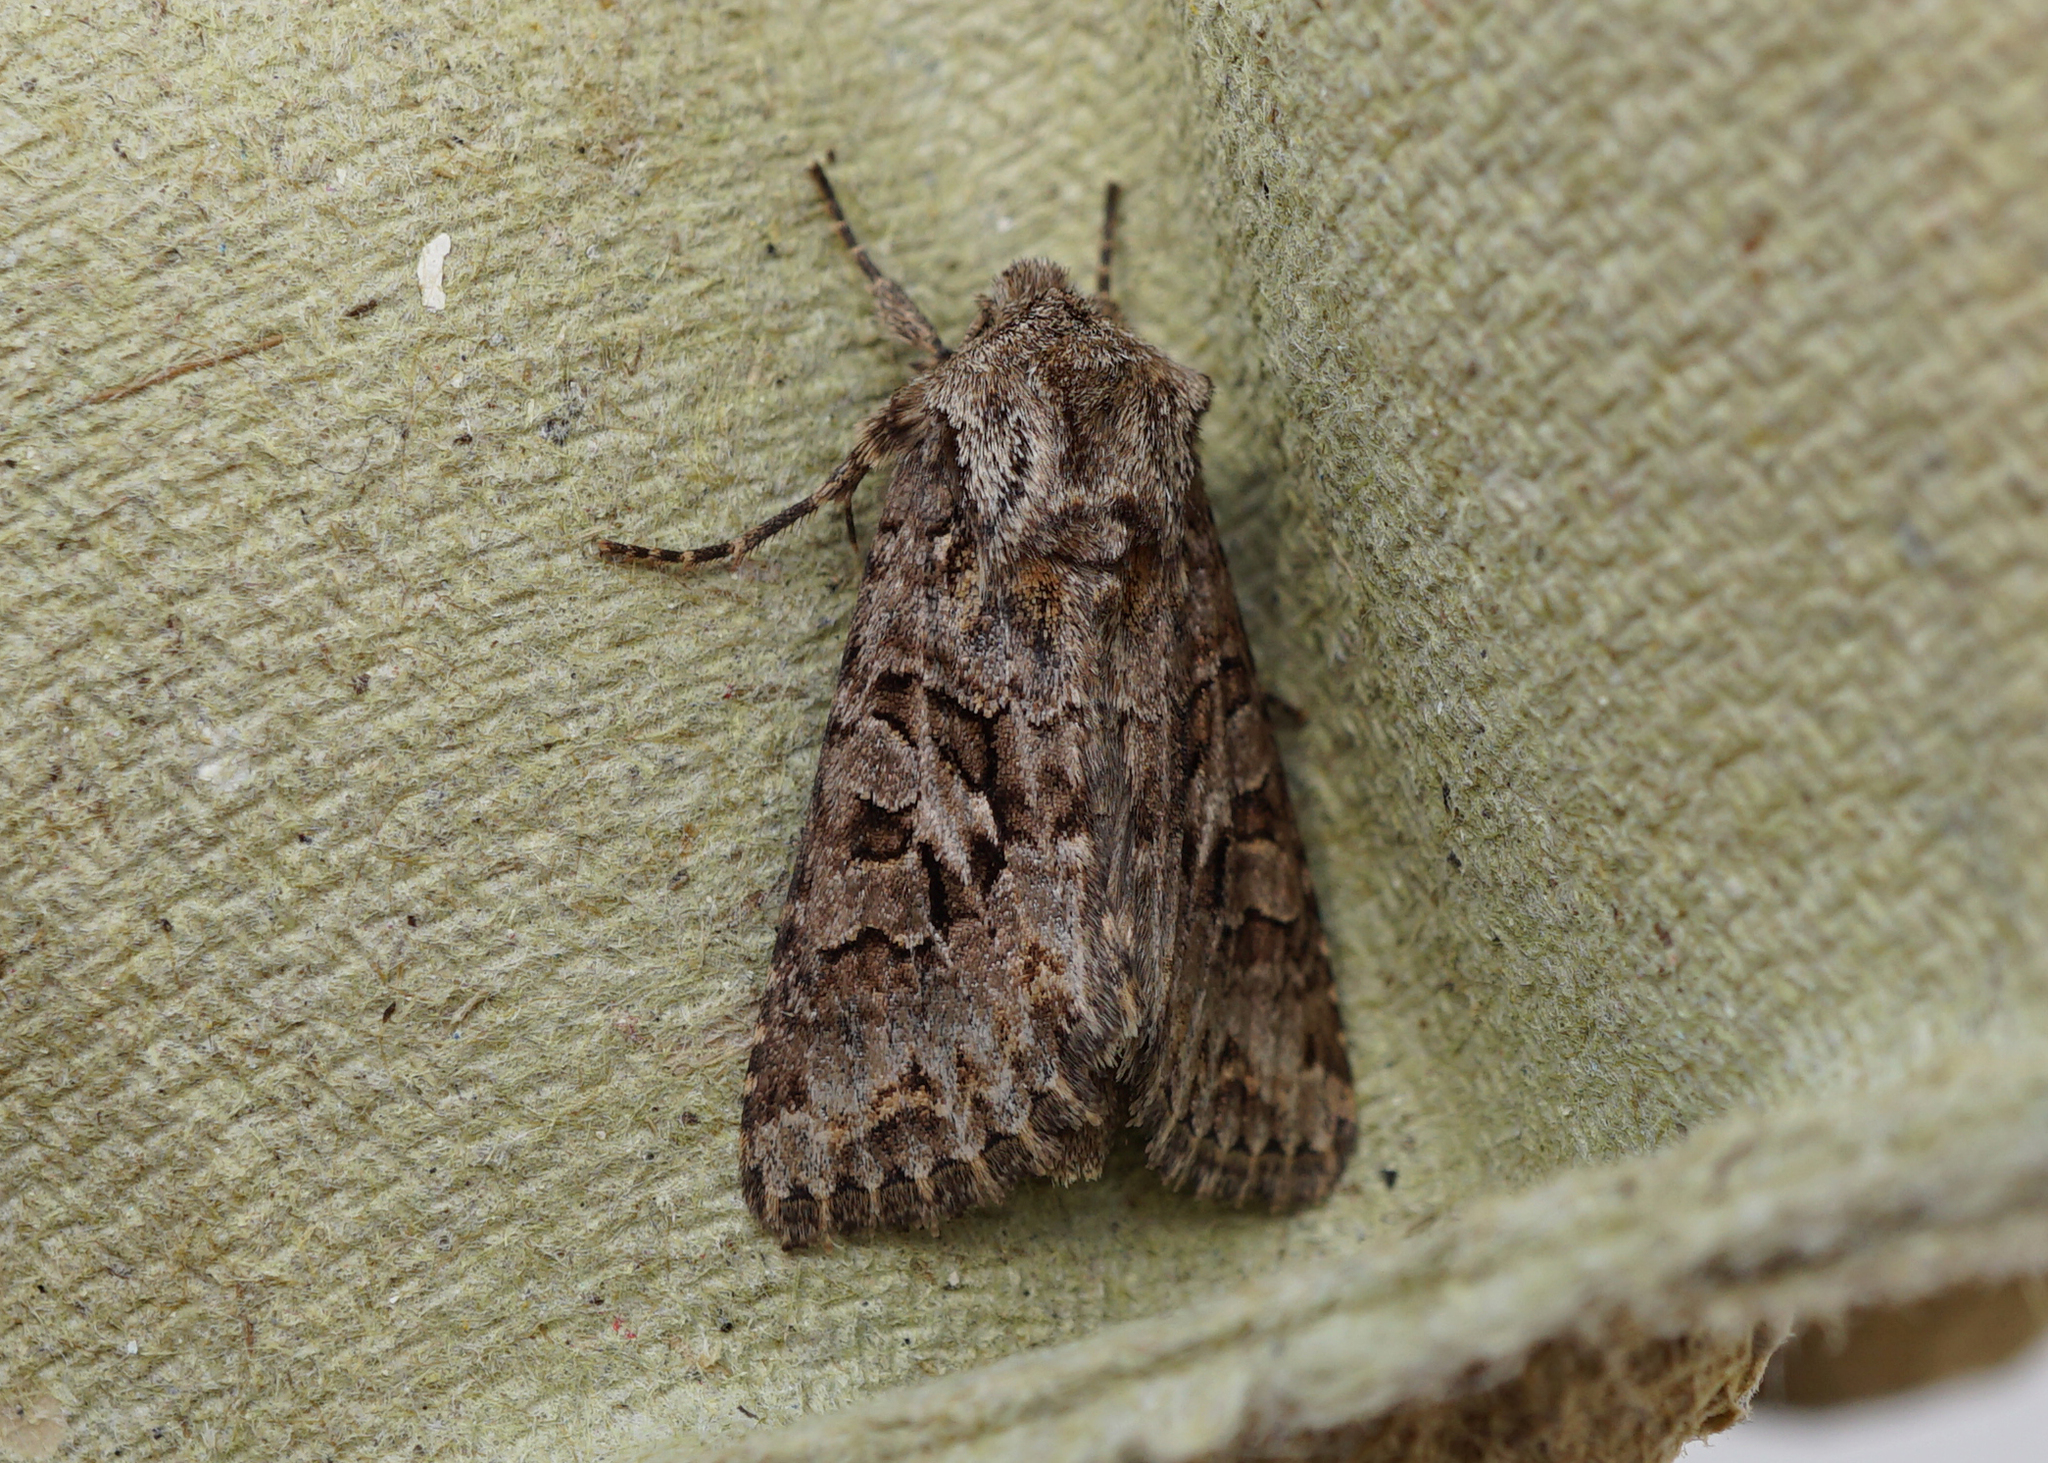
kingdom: Animalia
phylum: Arthropoda
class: Insecta
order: Lepidoptera
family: Noctuidae
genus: Hada
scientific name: Hada plebeja
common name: Shears
